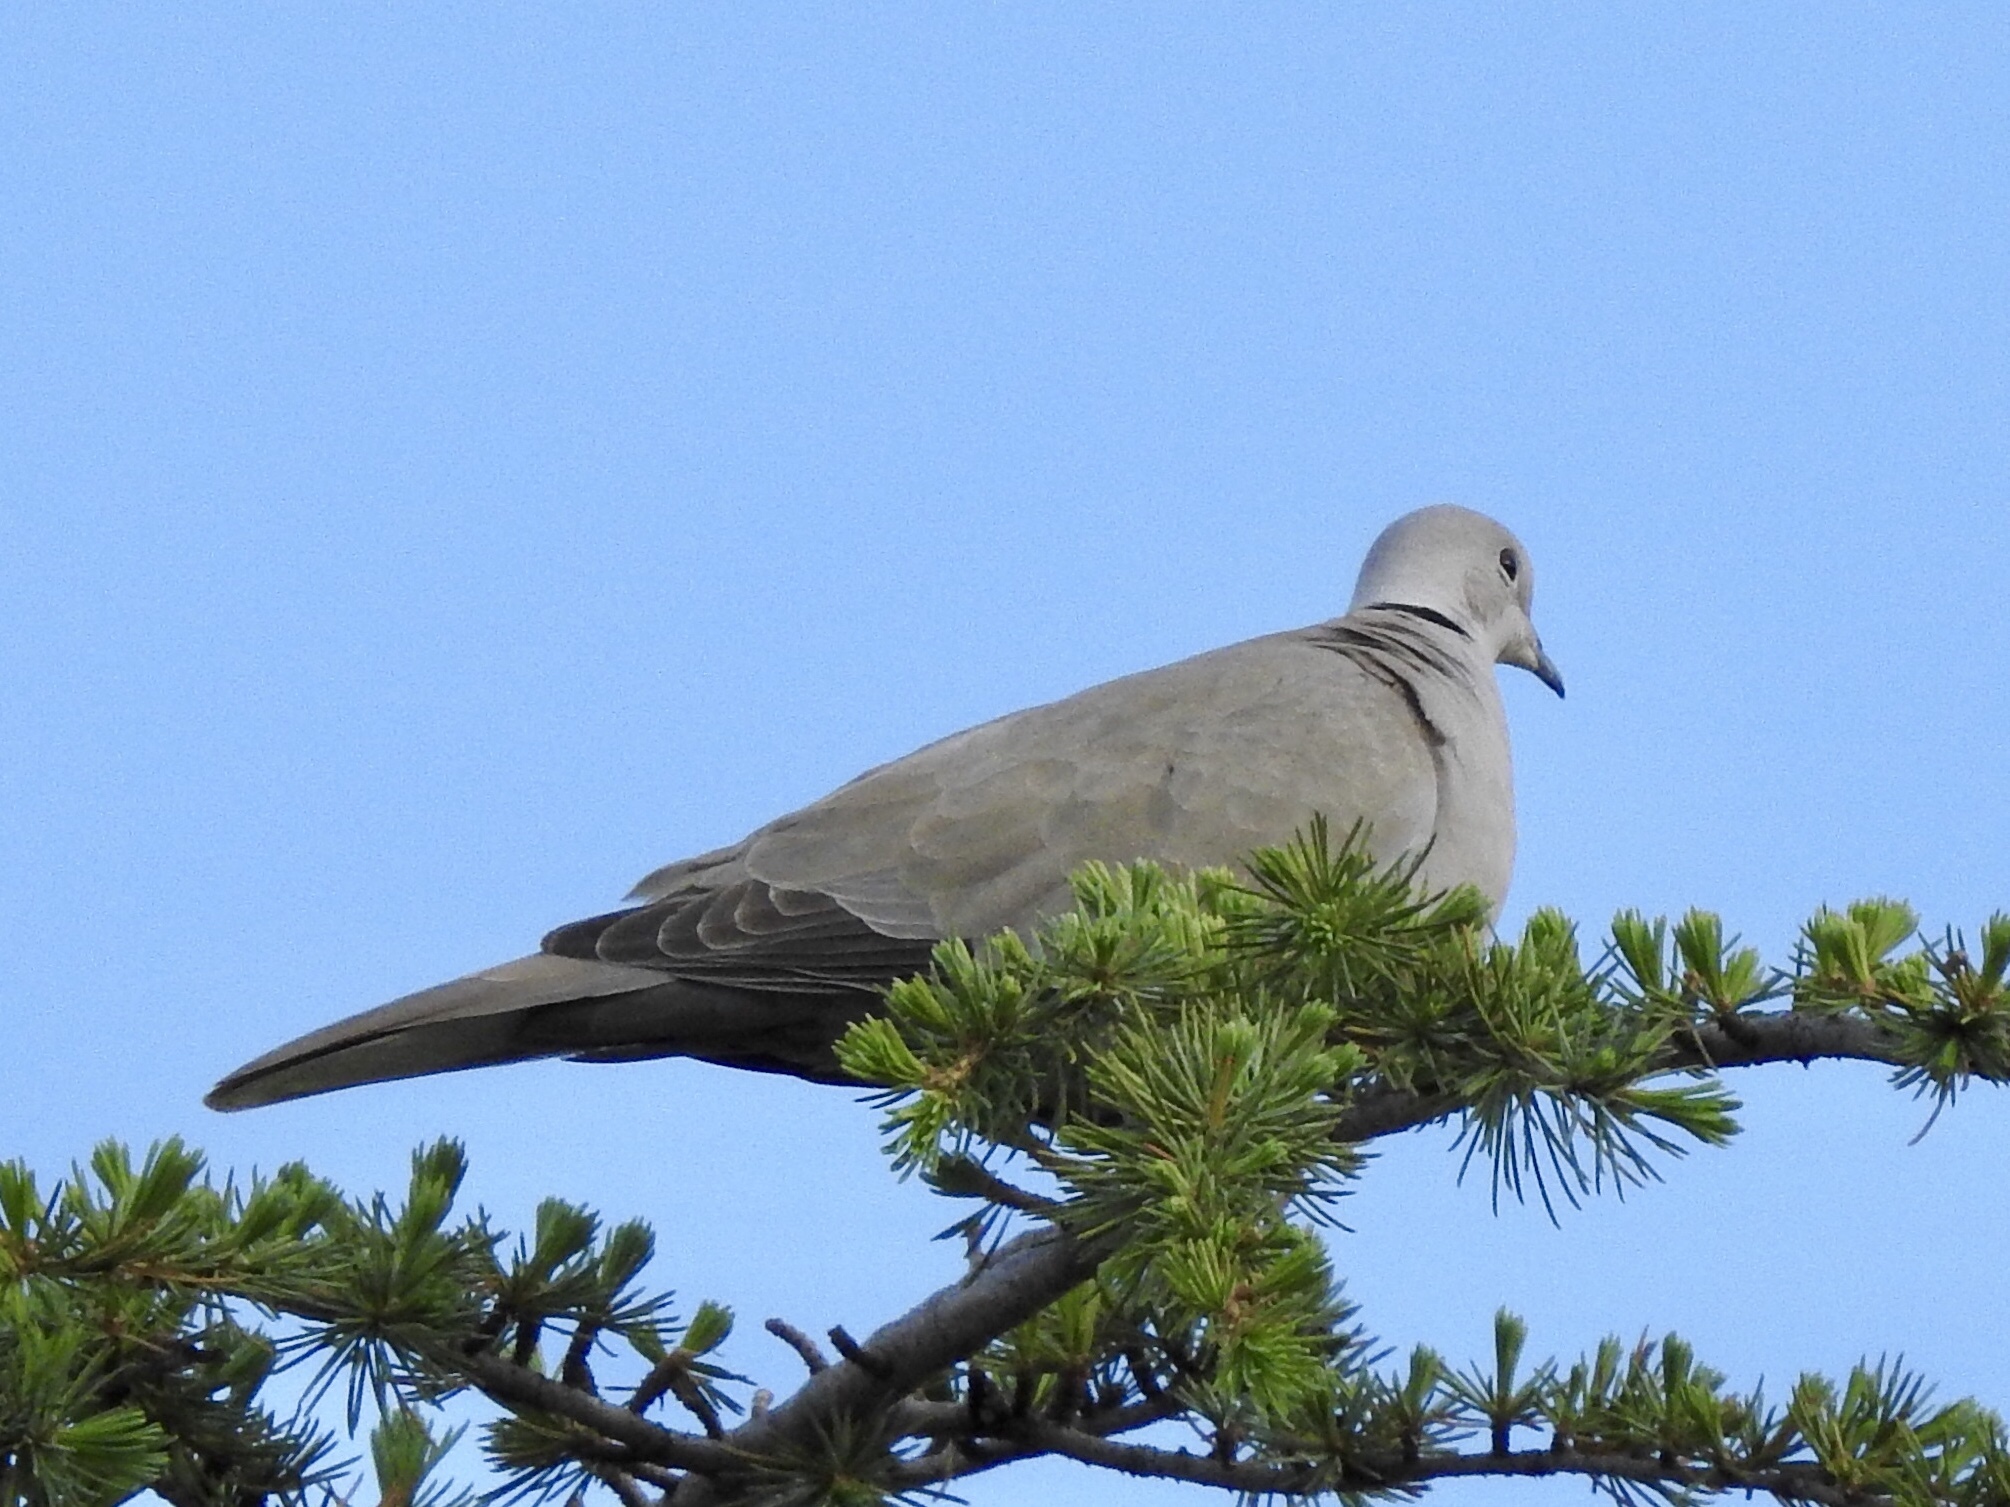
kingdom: Animalia
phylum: Chordata
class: Aves
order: Columbiformes
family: Columbidae
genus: Streptopelia
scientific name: Streptopelia decaocto
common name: Eurasian collared dove
